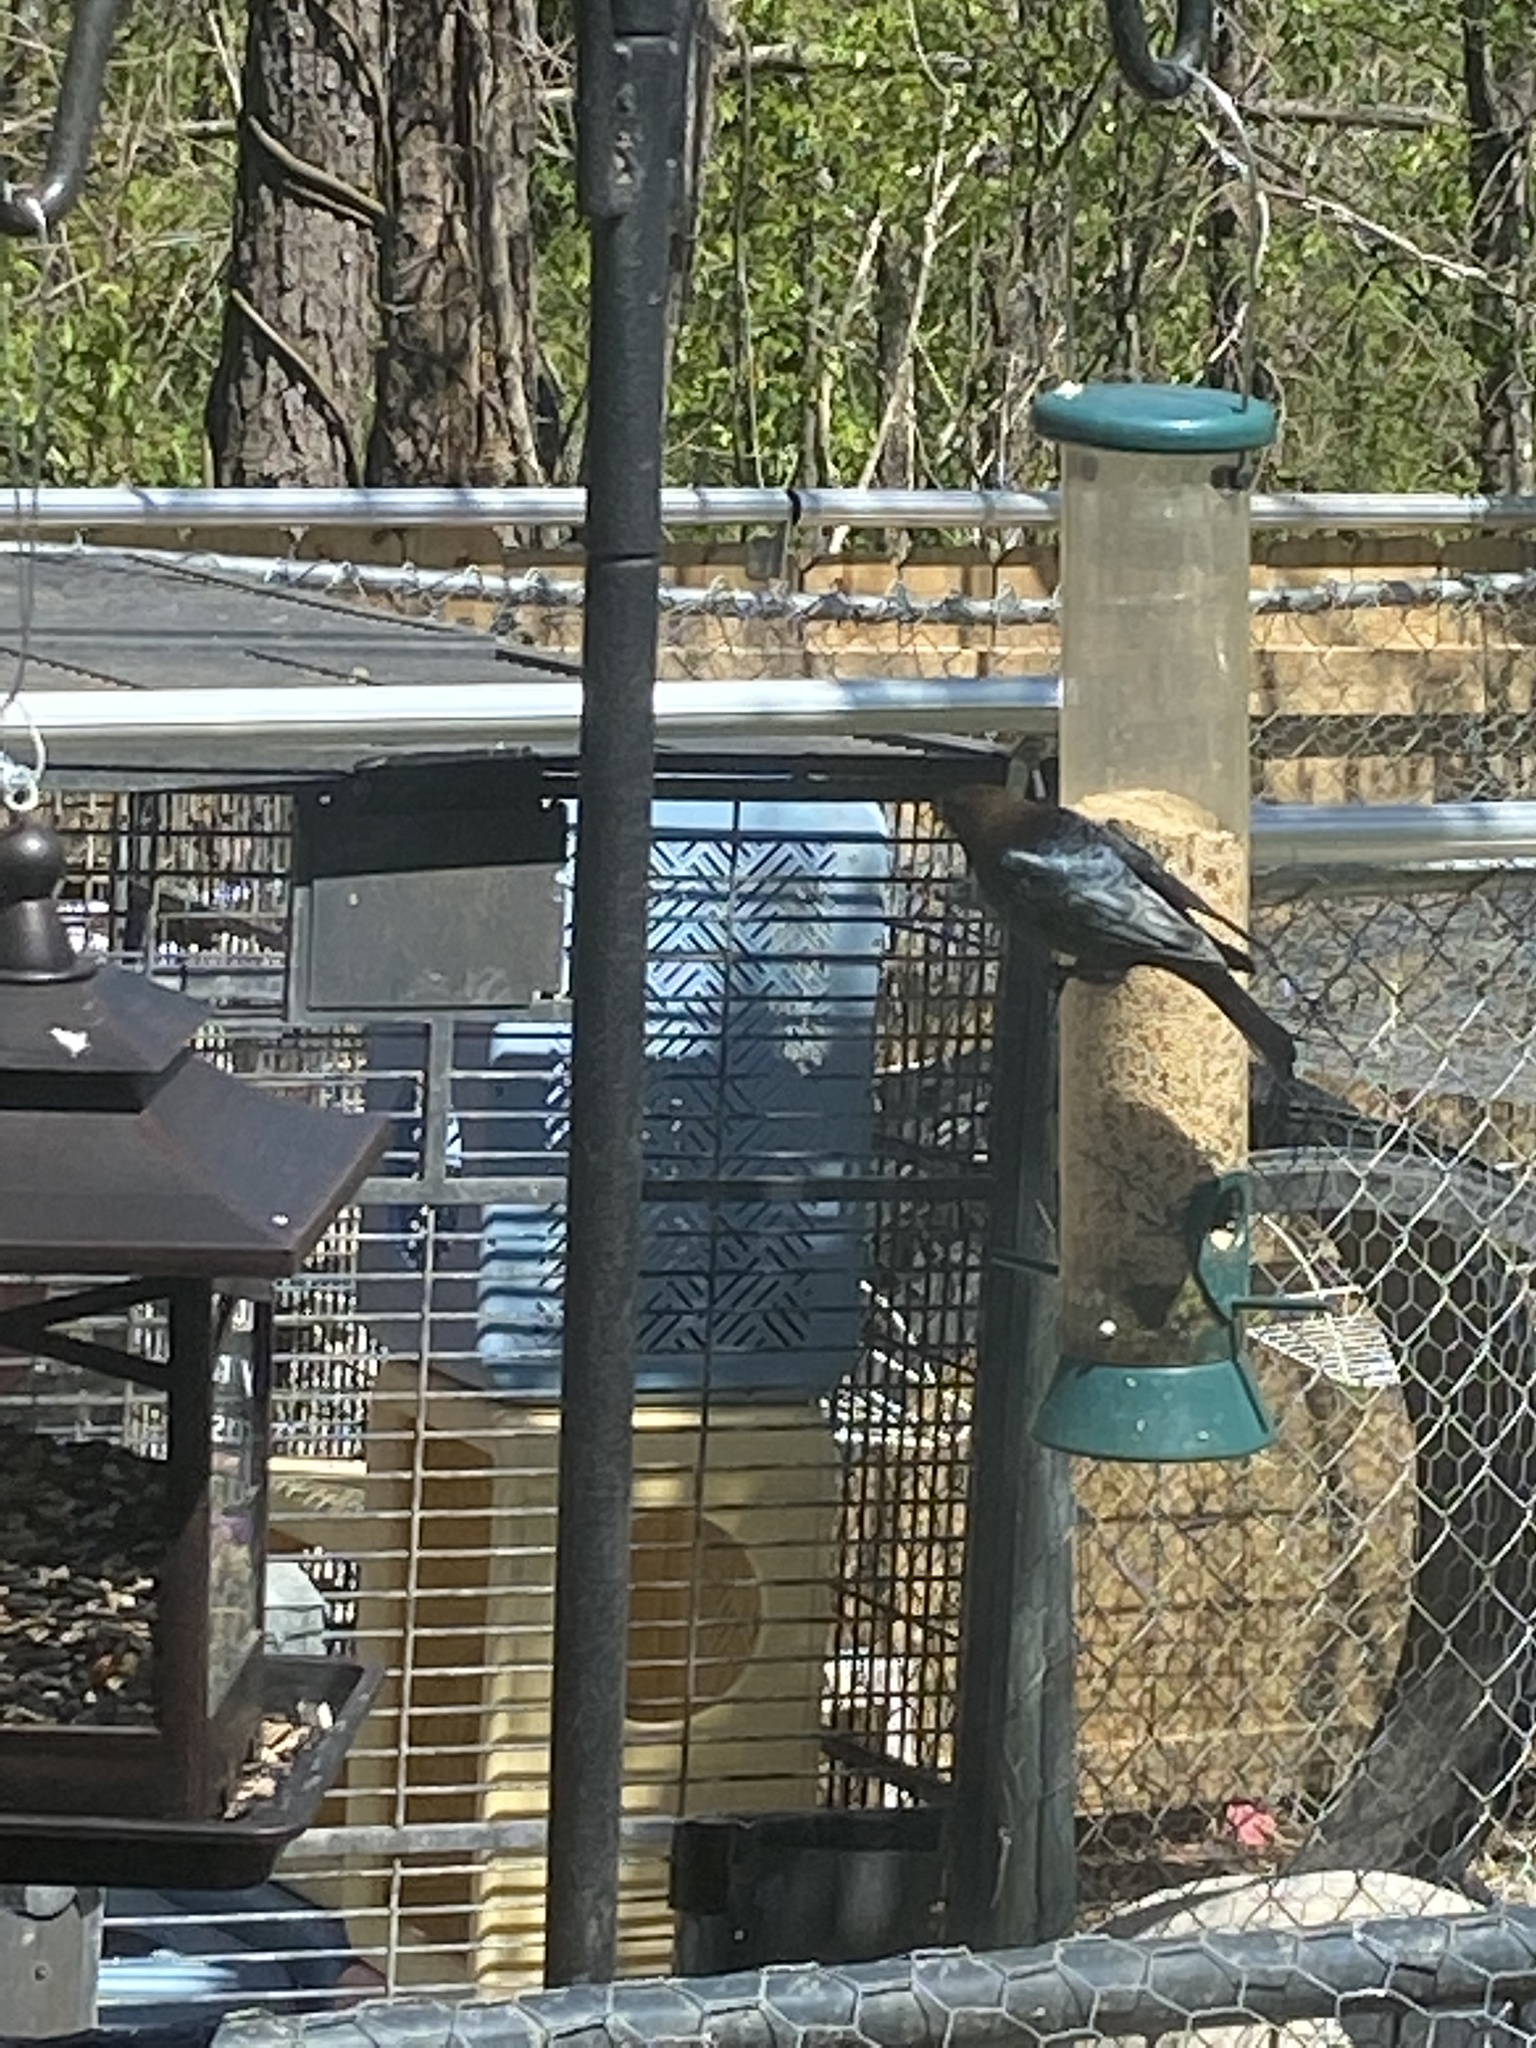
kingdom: Animalia
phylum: Chordata
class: Aves
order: Passeriformes
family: Icteridae
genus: Molothrus
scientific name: Molothrus ater
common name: Brown-headed cowbird
